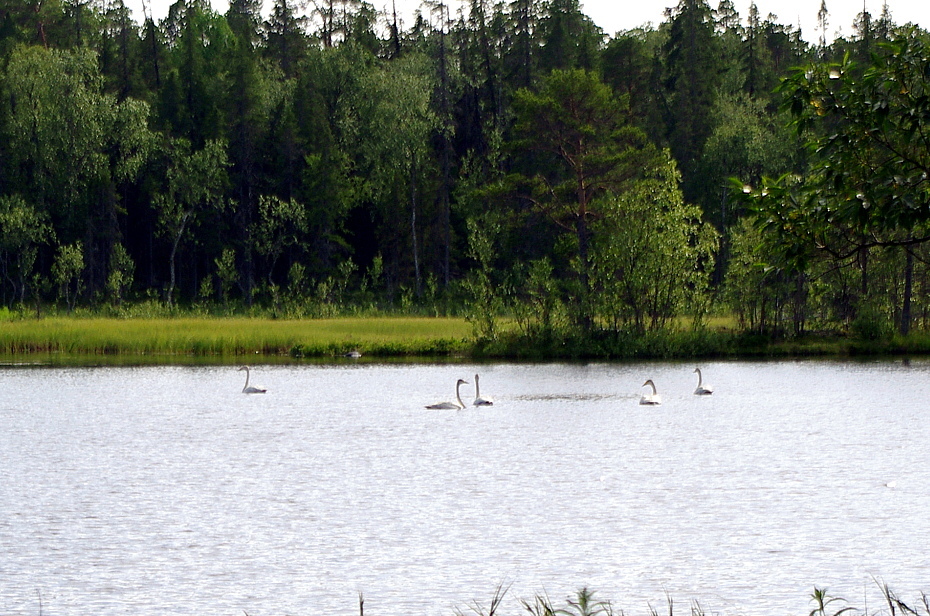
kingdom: Animalia
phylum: Chordata
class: Aves
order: Anseriformes
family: Anatidae
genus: Cygnus
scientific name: Cygnus cygnus
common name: Whooper swan
